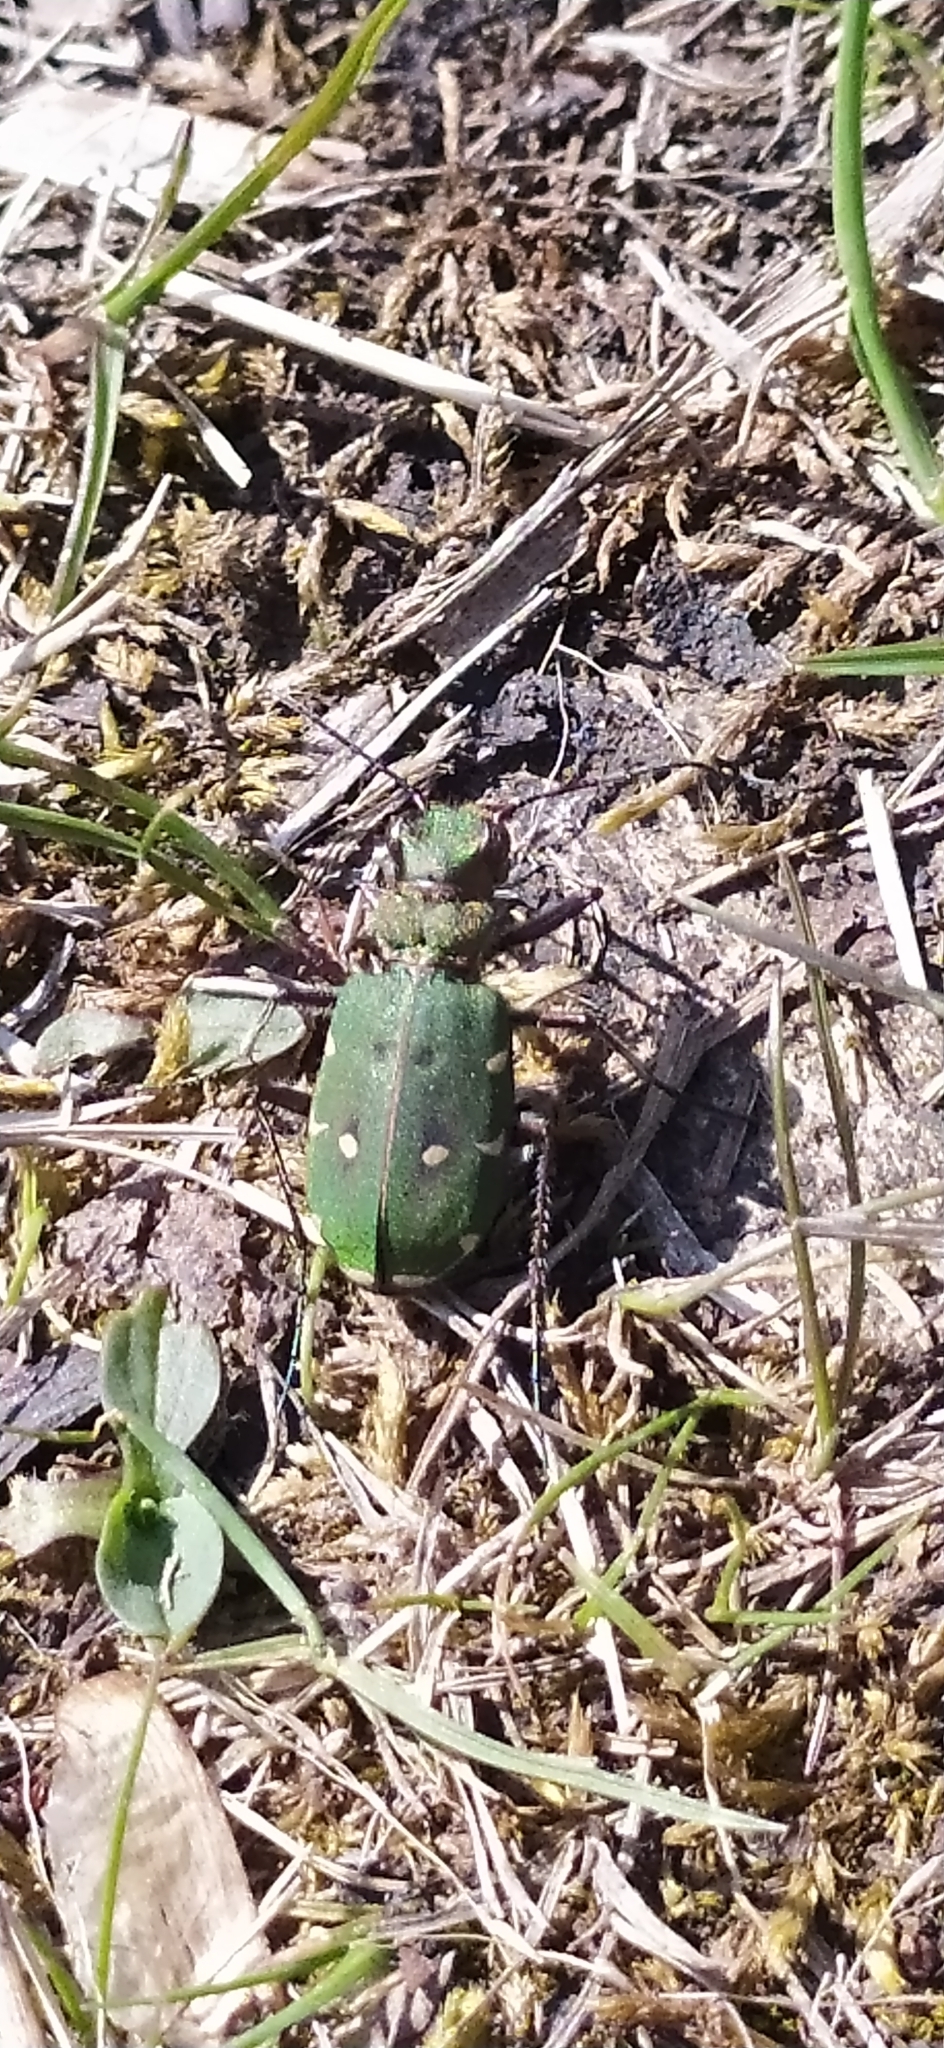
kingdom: Animalia
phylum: Arthropoda
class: Insecta
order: Coleoptera
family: Carabidae
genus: Cicindela
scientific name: Cicindela campestris
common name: Common tiger beetle
